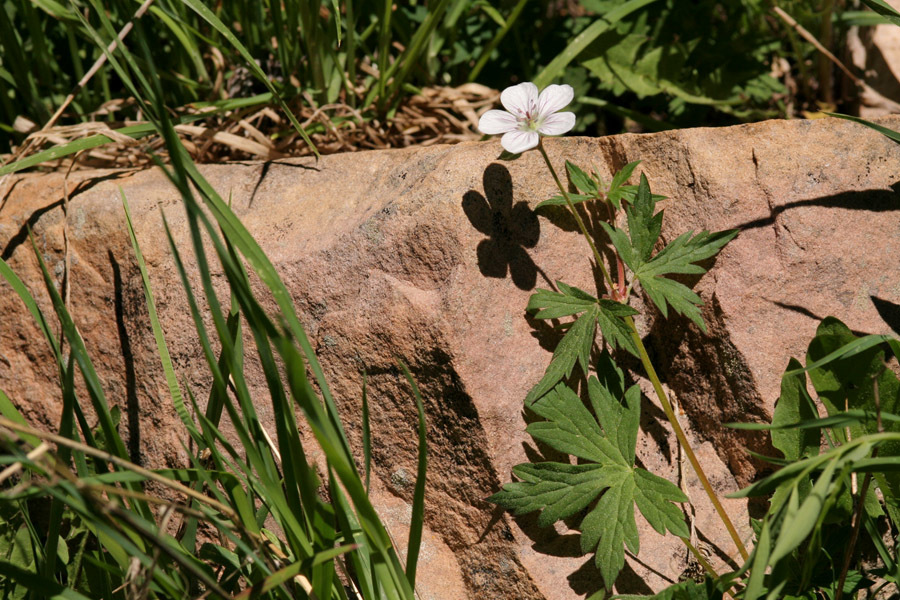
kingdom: Plantae
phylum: Tracheophyta
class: Magnoliopsida
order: Geraniales
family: Geraniaceae
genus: Geranium
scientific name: Geranium richardsonii
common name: Richardson's crane's-bill
